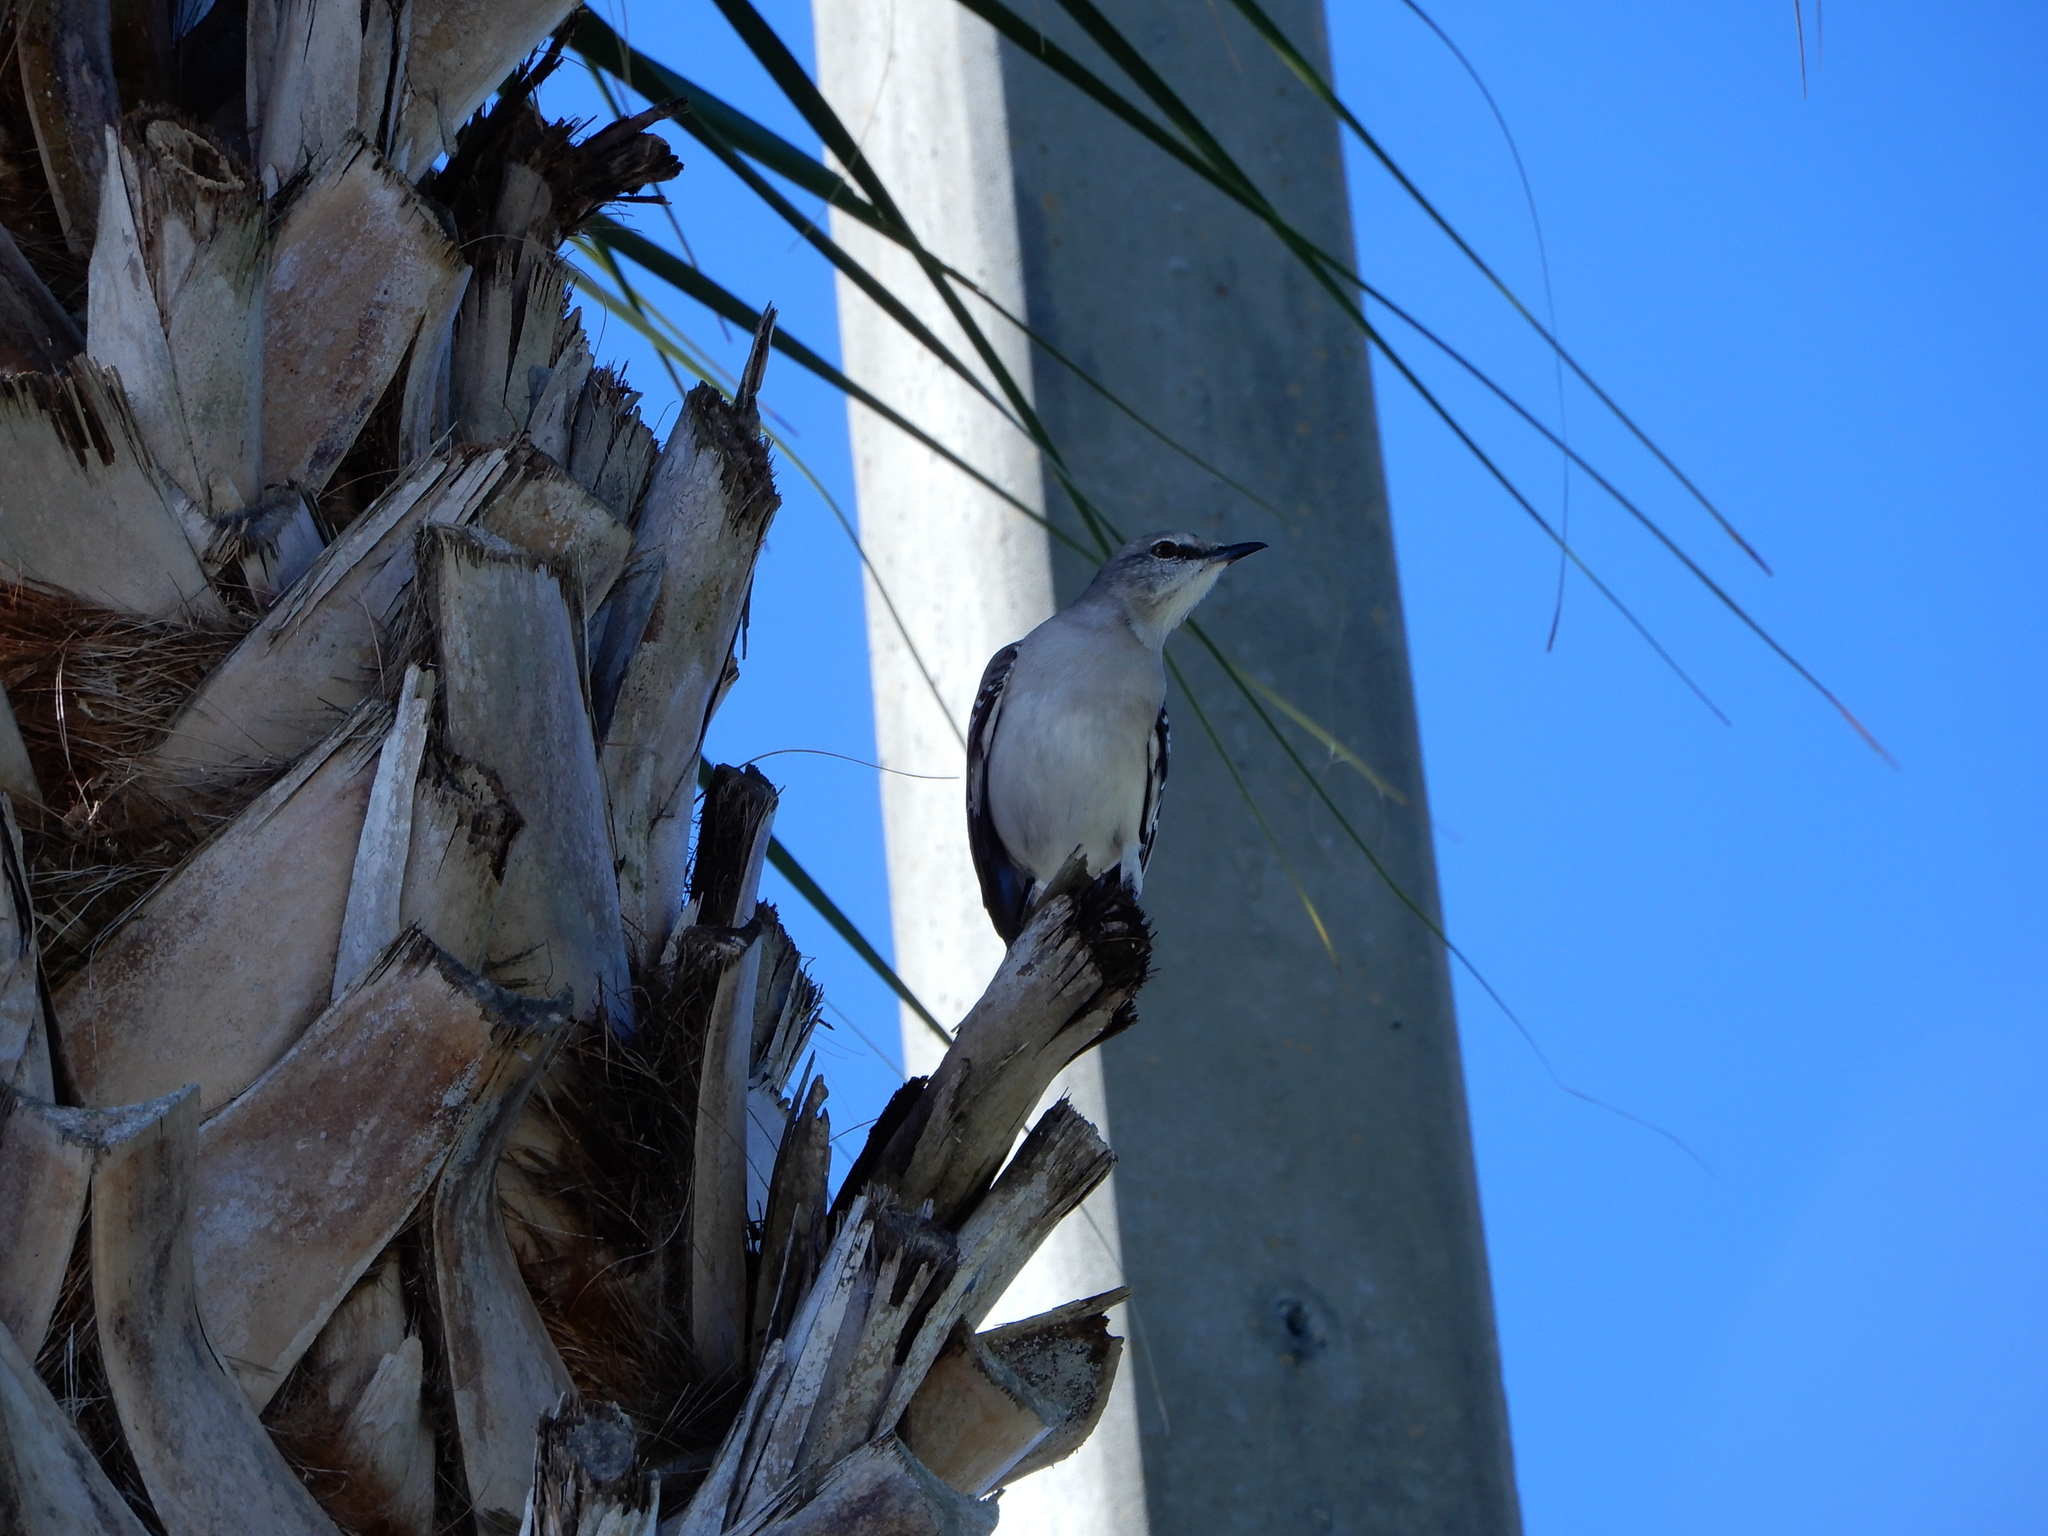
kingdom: Animalia
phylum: Chordata
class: Aves
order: Passeriformes
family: Mimidae
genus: Mimus
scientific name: Mimus polyglottos
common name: Northern mockingbird
